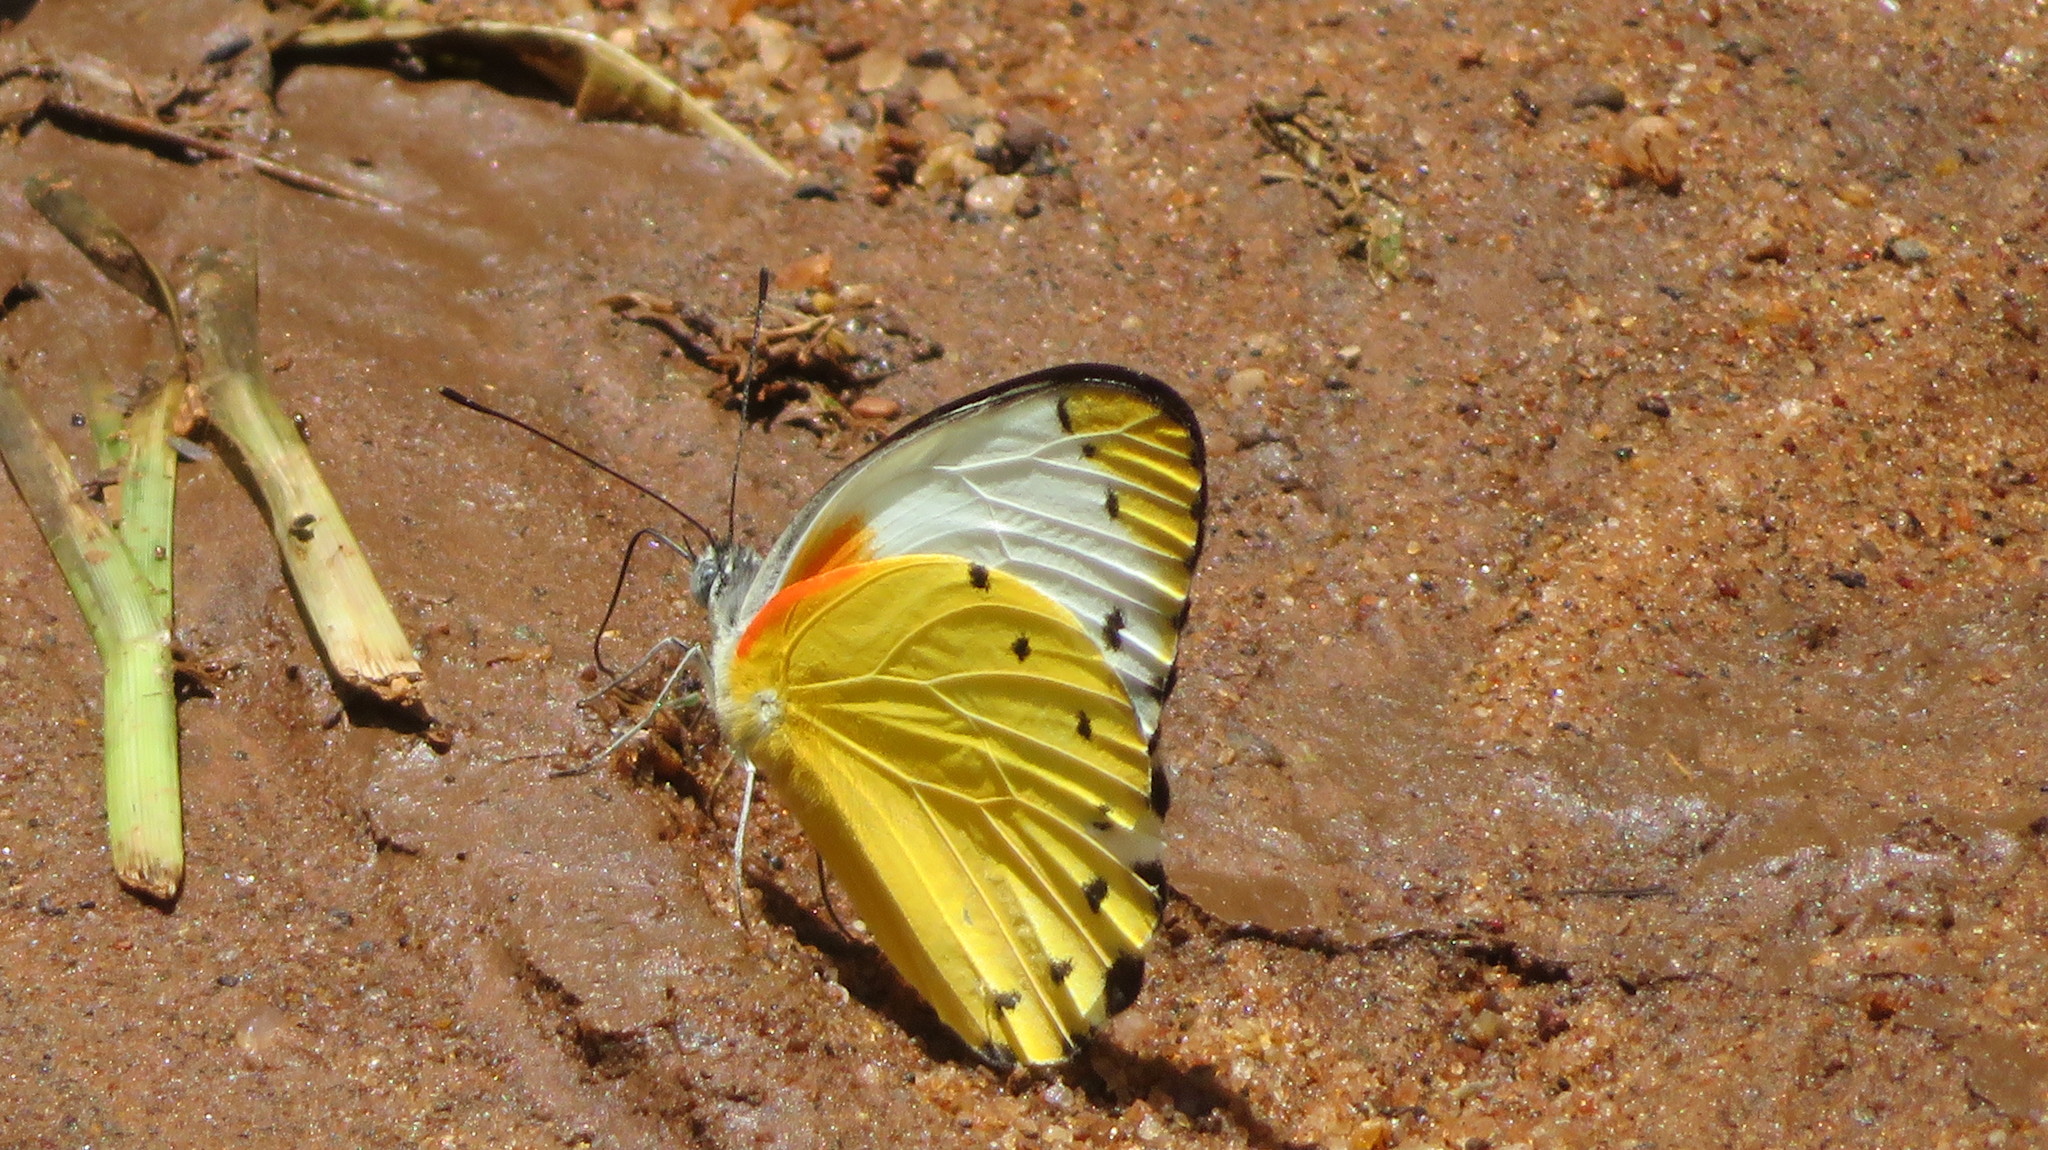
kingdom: Animalia
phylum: Arthropoda
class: Insecta
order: Lepidoptera
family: Pieridae
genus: Belenois
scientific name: Belenois thysa
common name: False dotted border
